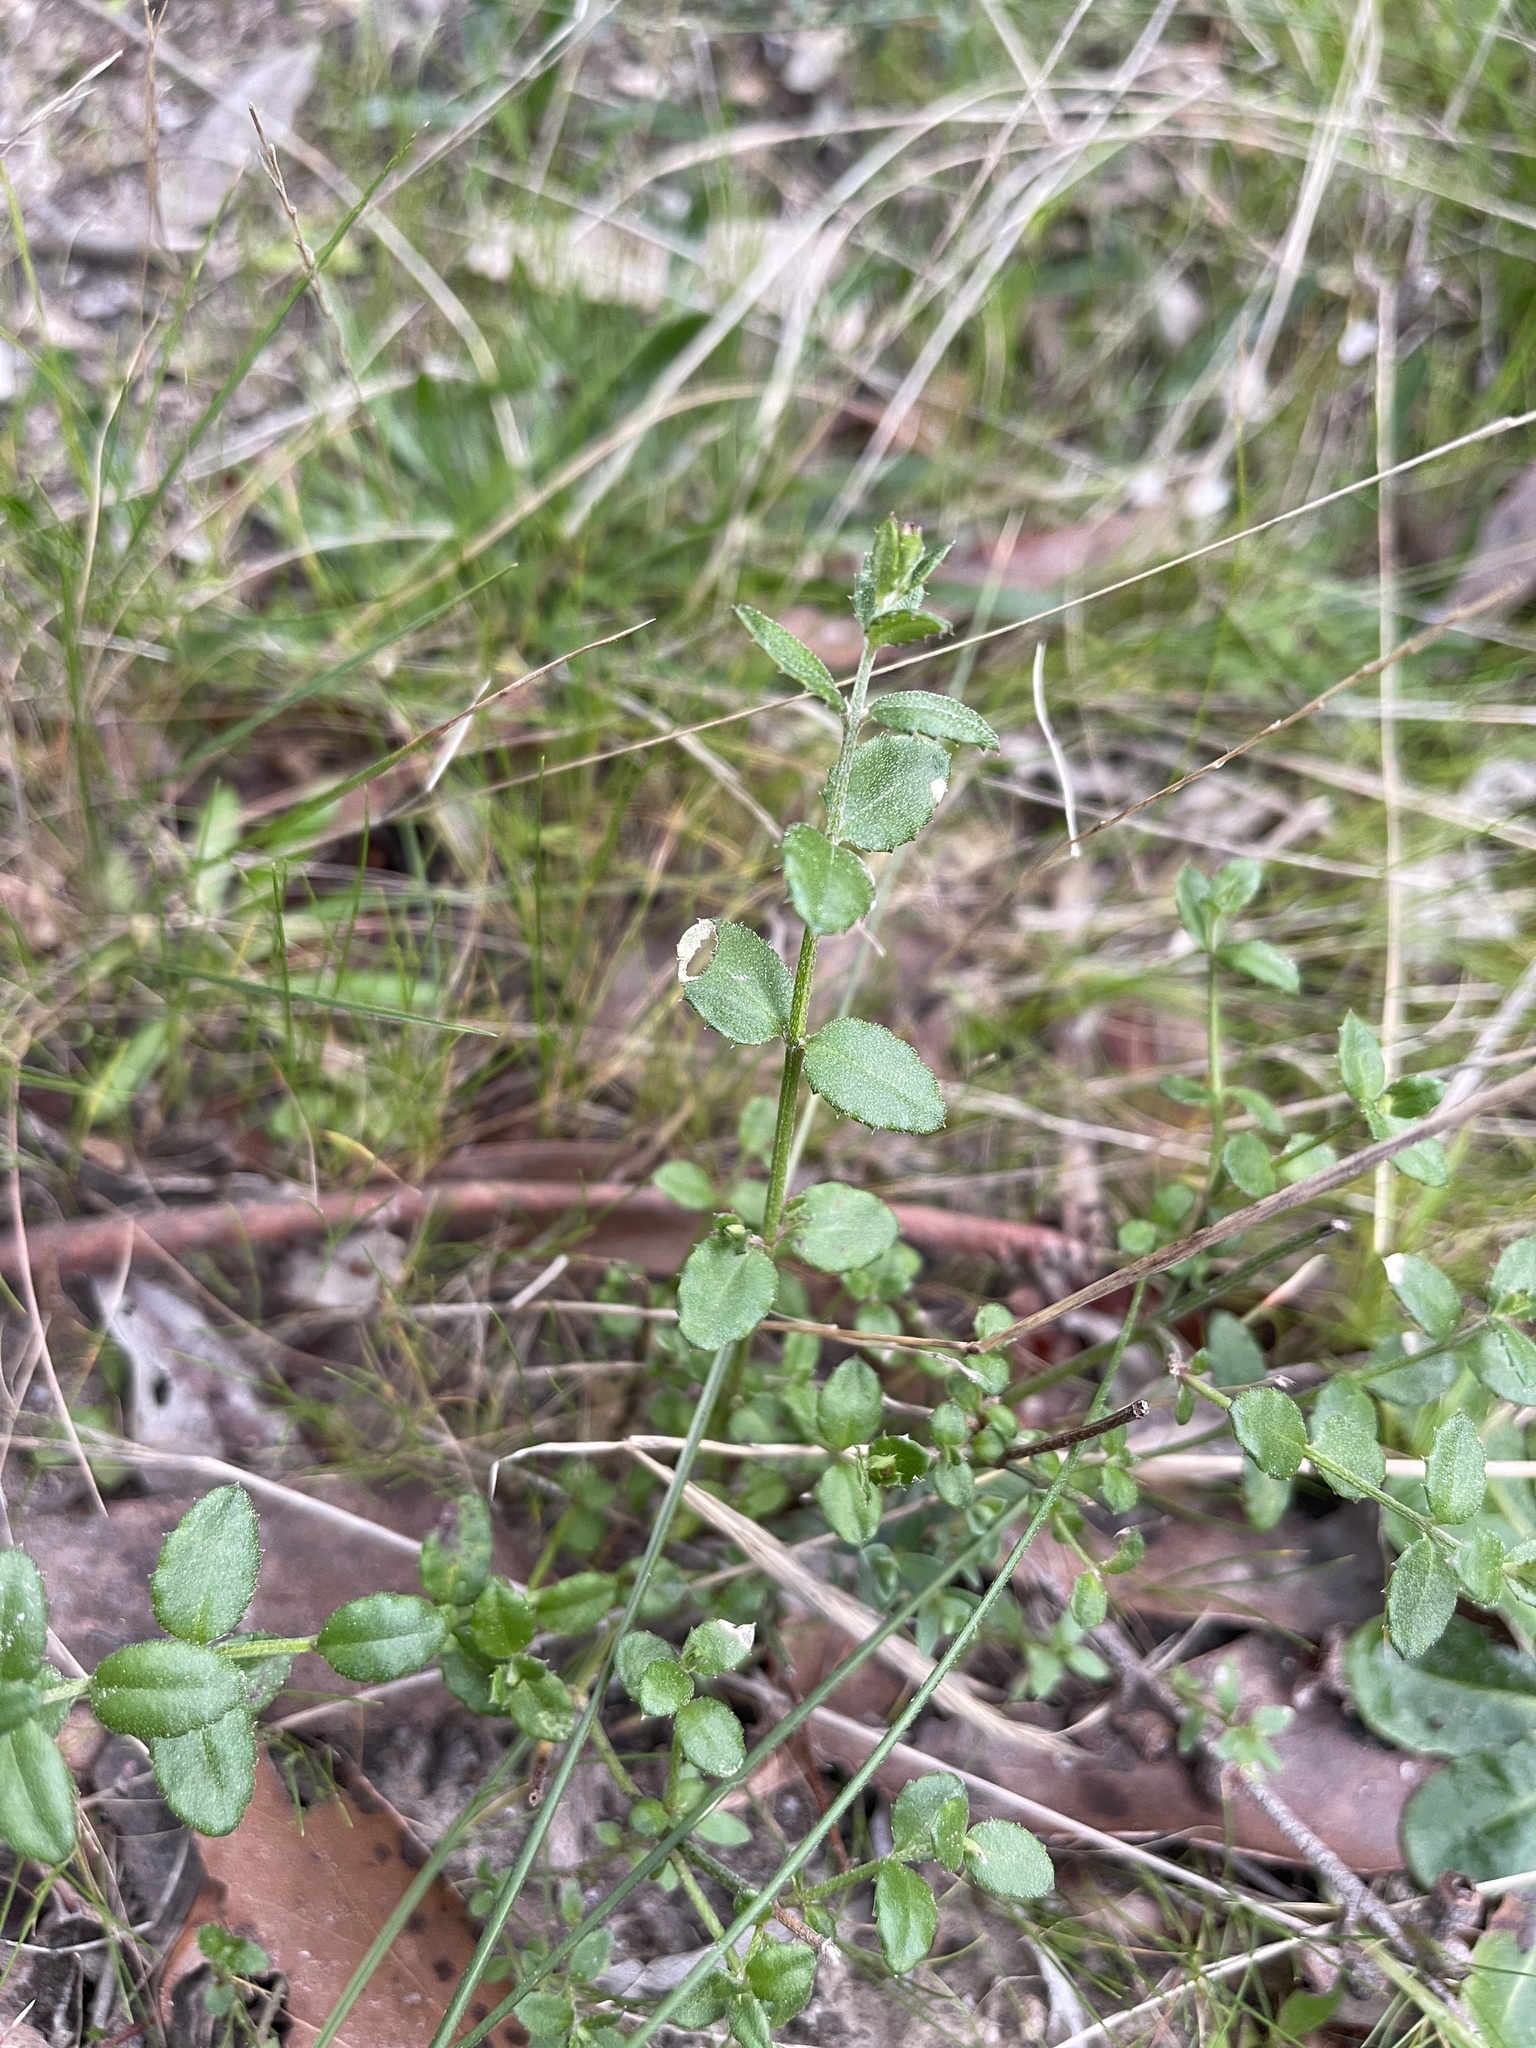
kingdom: Plantae
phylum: Tracheophyta
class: Magnoliopsida
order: Saxifragales
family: Haloragaceae
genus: Gonocarpus
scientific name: Gonocarpus tetragynus
